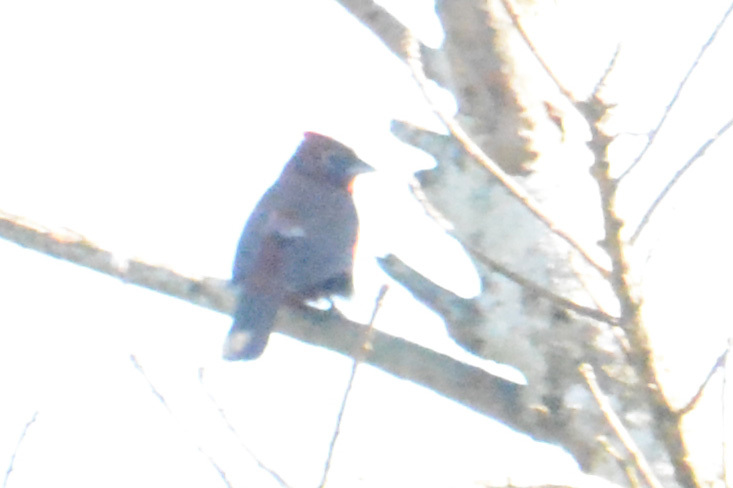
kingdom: Animalia
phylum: Chordata
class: Aves
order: Passeriformes
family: Thraupidae
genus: Coryphospingus
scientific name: Coryphospingus cucullatus
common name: Red pileated finch
